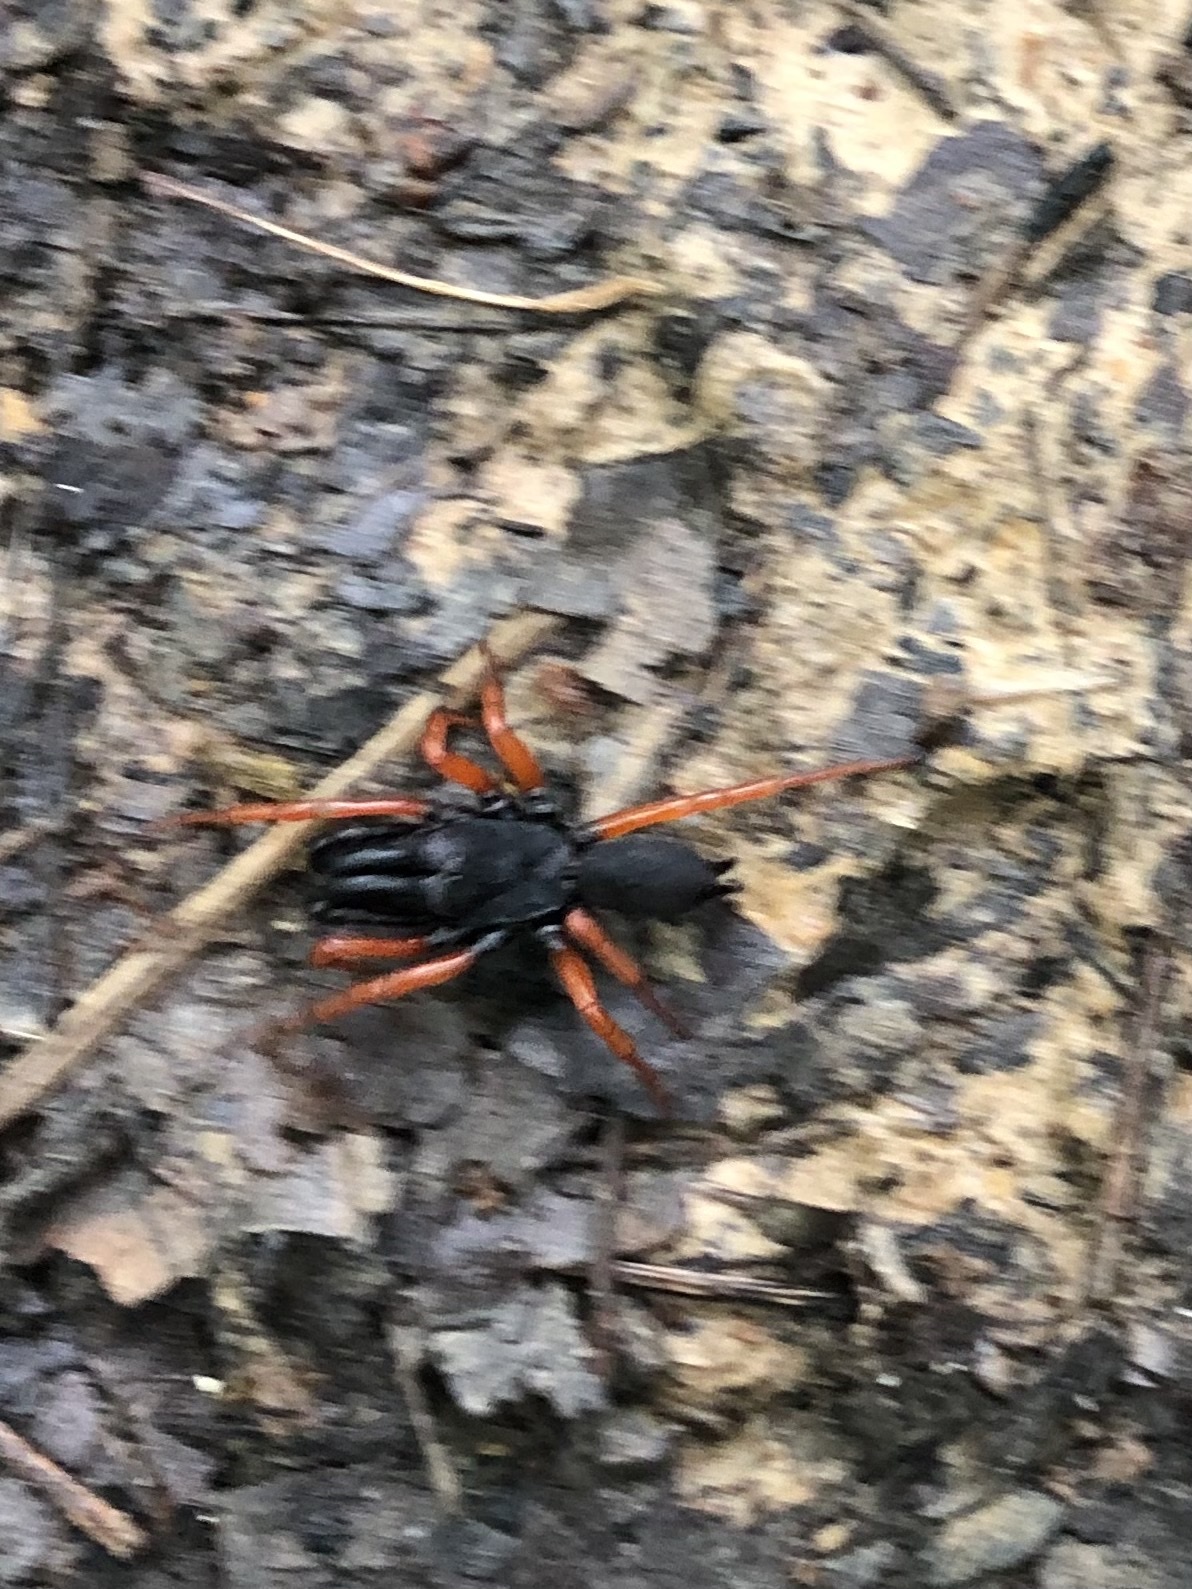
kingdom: Animalia
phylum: Arthropoda
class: Arachnida
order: Araneae
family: Atypidae
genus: Sphodros
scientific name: Sphodros rufipes
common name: Red-legged purseweb spider
